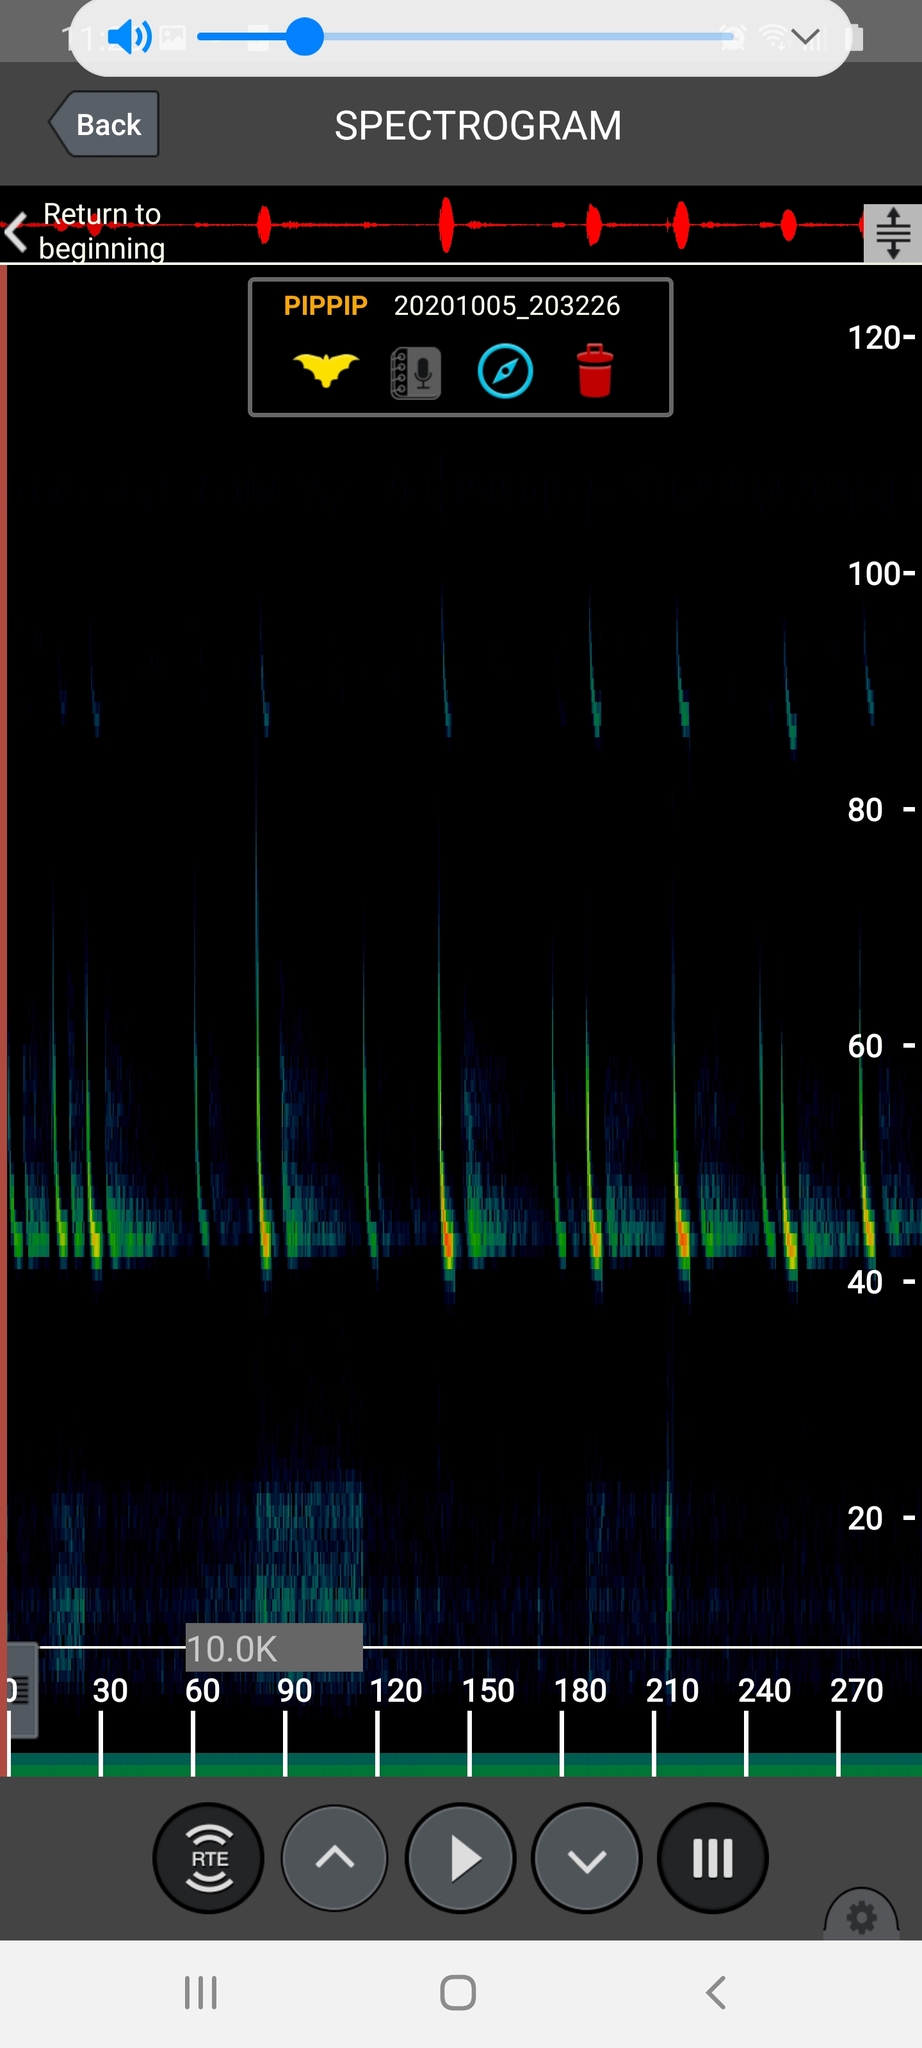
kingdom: Animalia
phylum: Chordata
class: Mammalia
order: Chiroptera
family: Vespertilionidae
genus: Pipistrellus
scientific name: Pipistrellus pipistrellus
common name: Common pipistrelle
